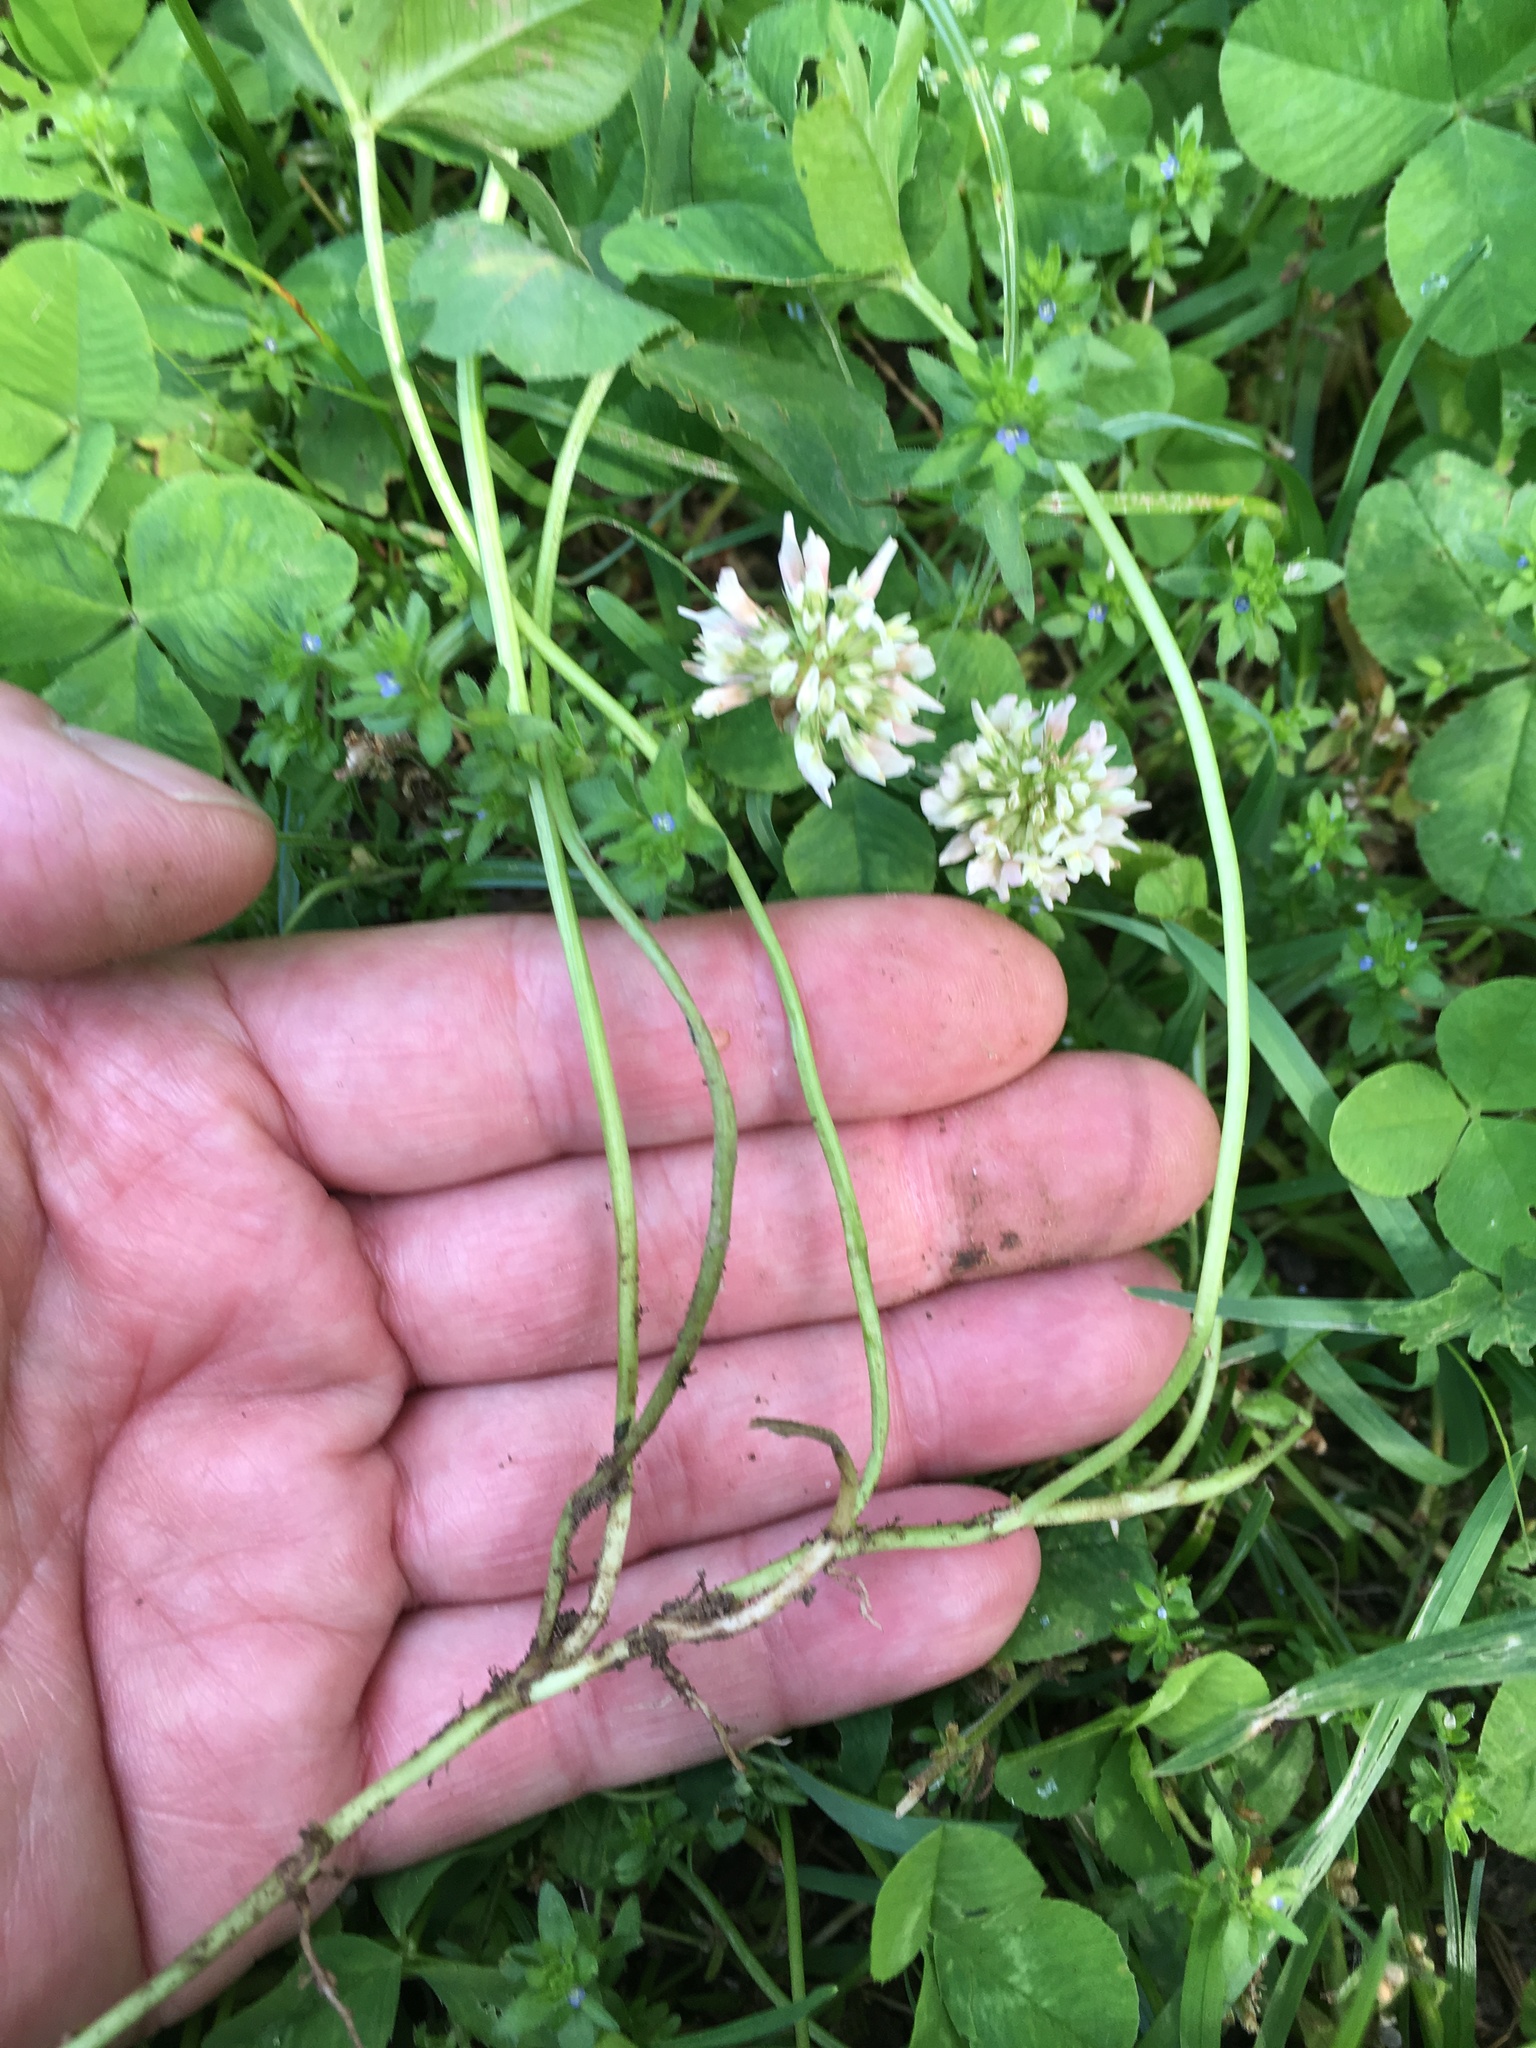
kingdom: Plantae
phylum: Tracheophyta
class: Magnoliopsida
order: Fabales
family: Fabaceae
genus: Trifolium
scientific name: Trifolium repens
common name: White clover
